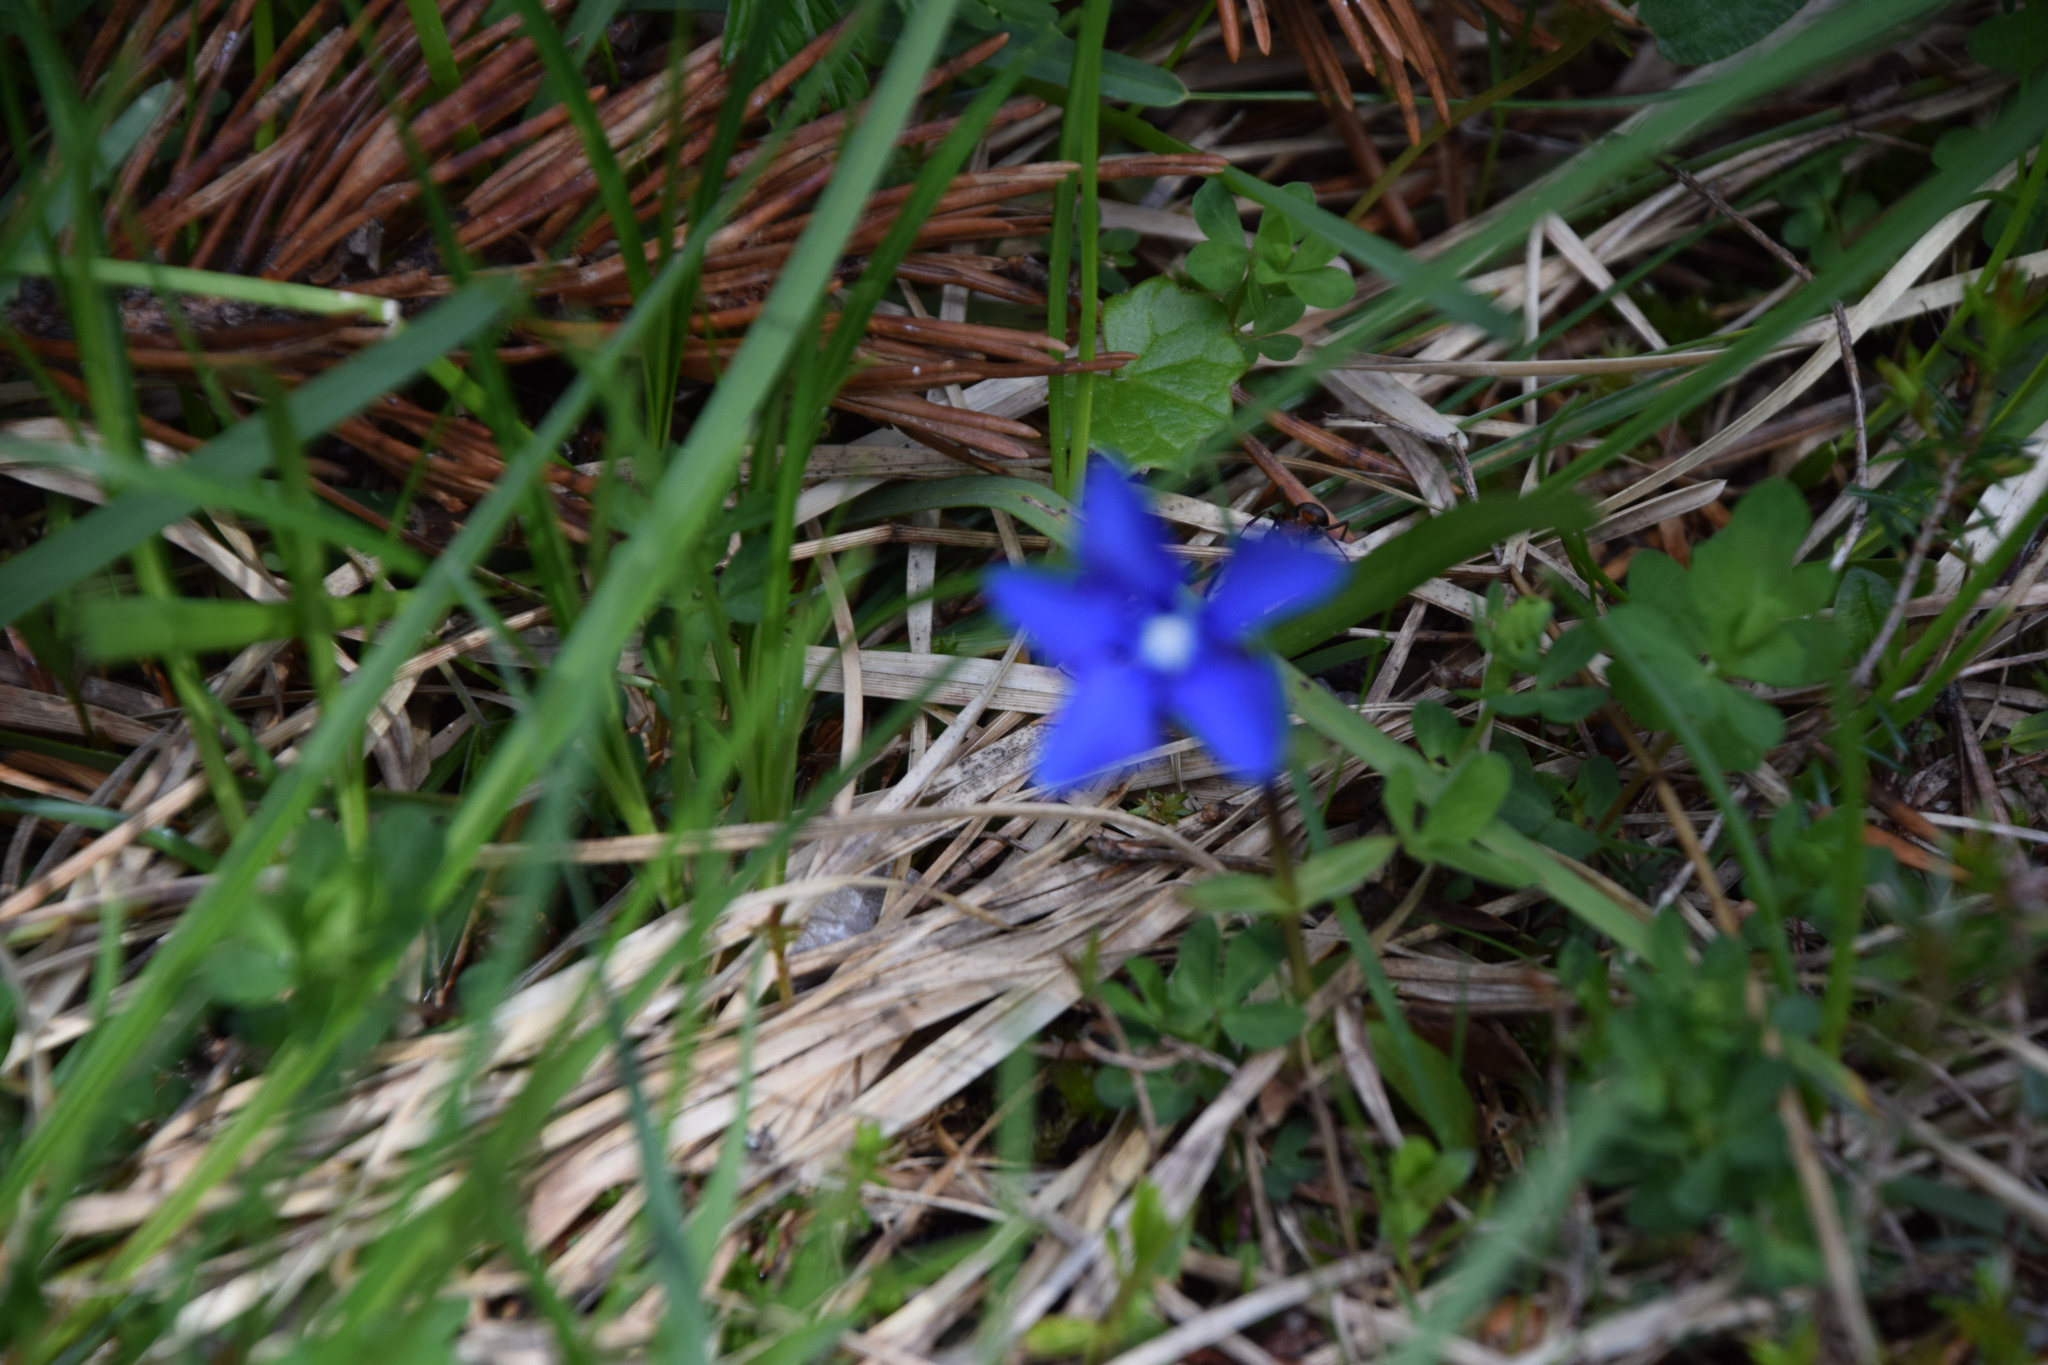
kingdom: Plantae
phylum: Tracheophyta
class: Magnoliopsida
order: Gentianales
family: Gentianaceae
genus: Gentiana
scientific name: Gentiana verna
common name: Spring gentian
